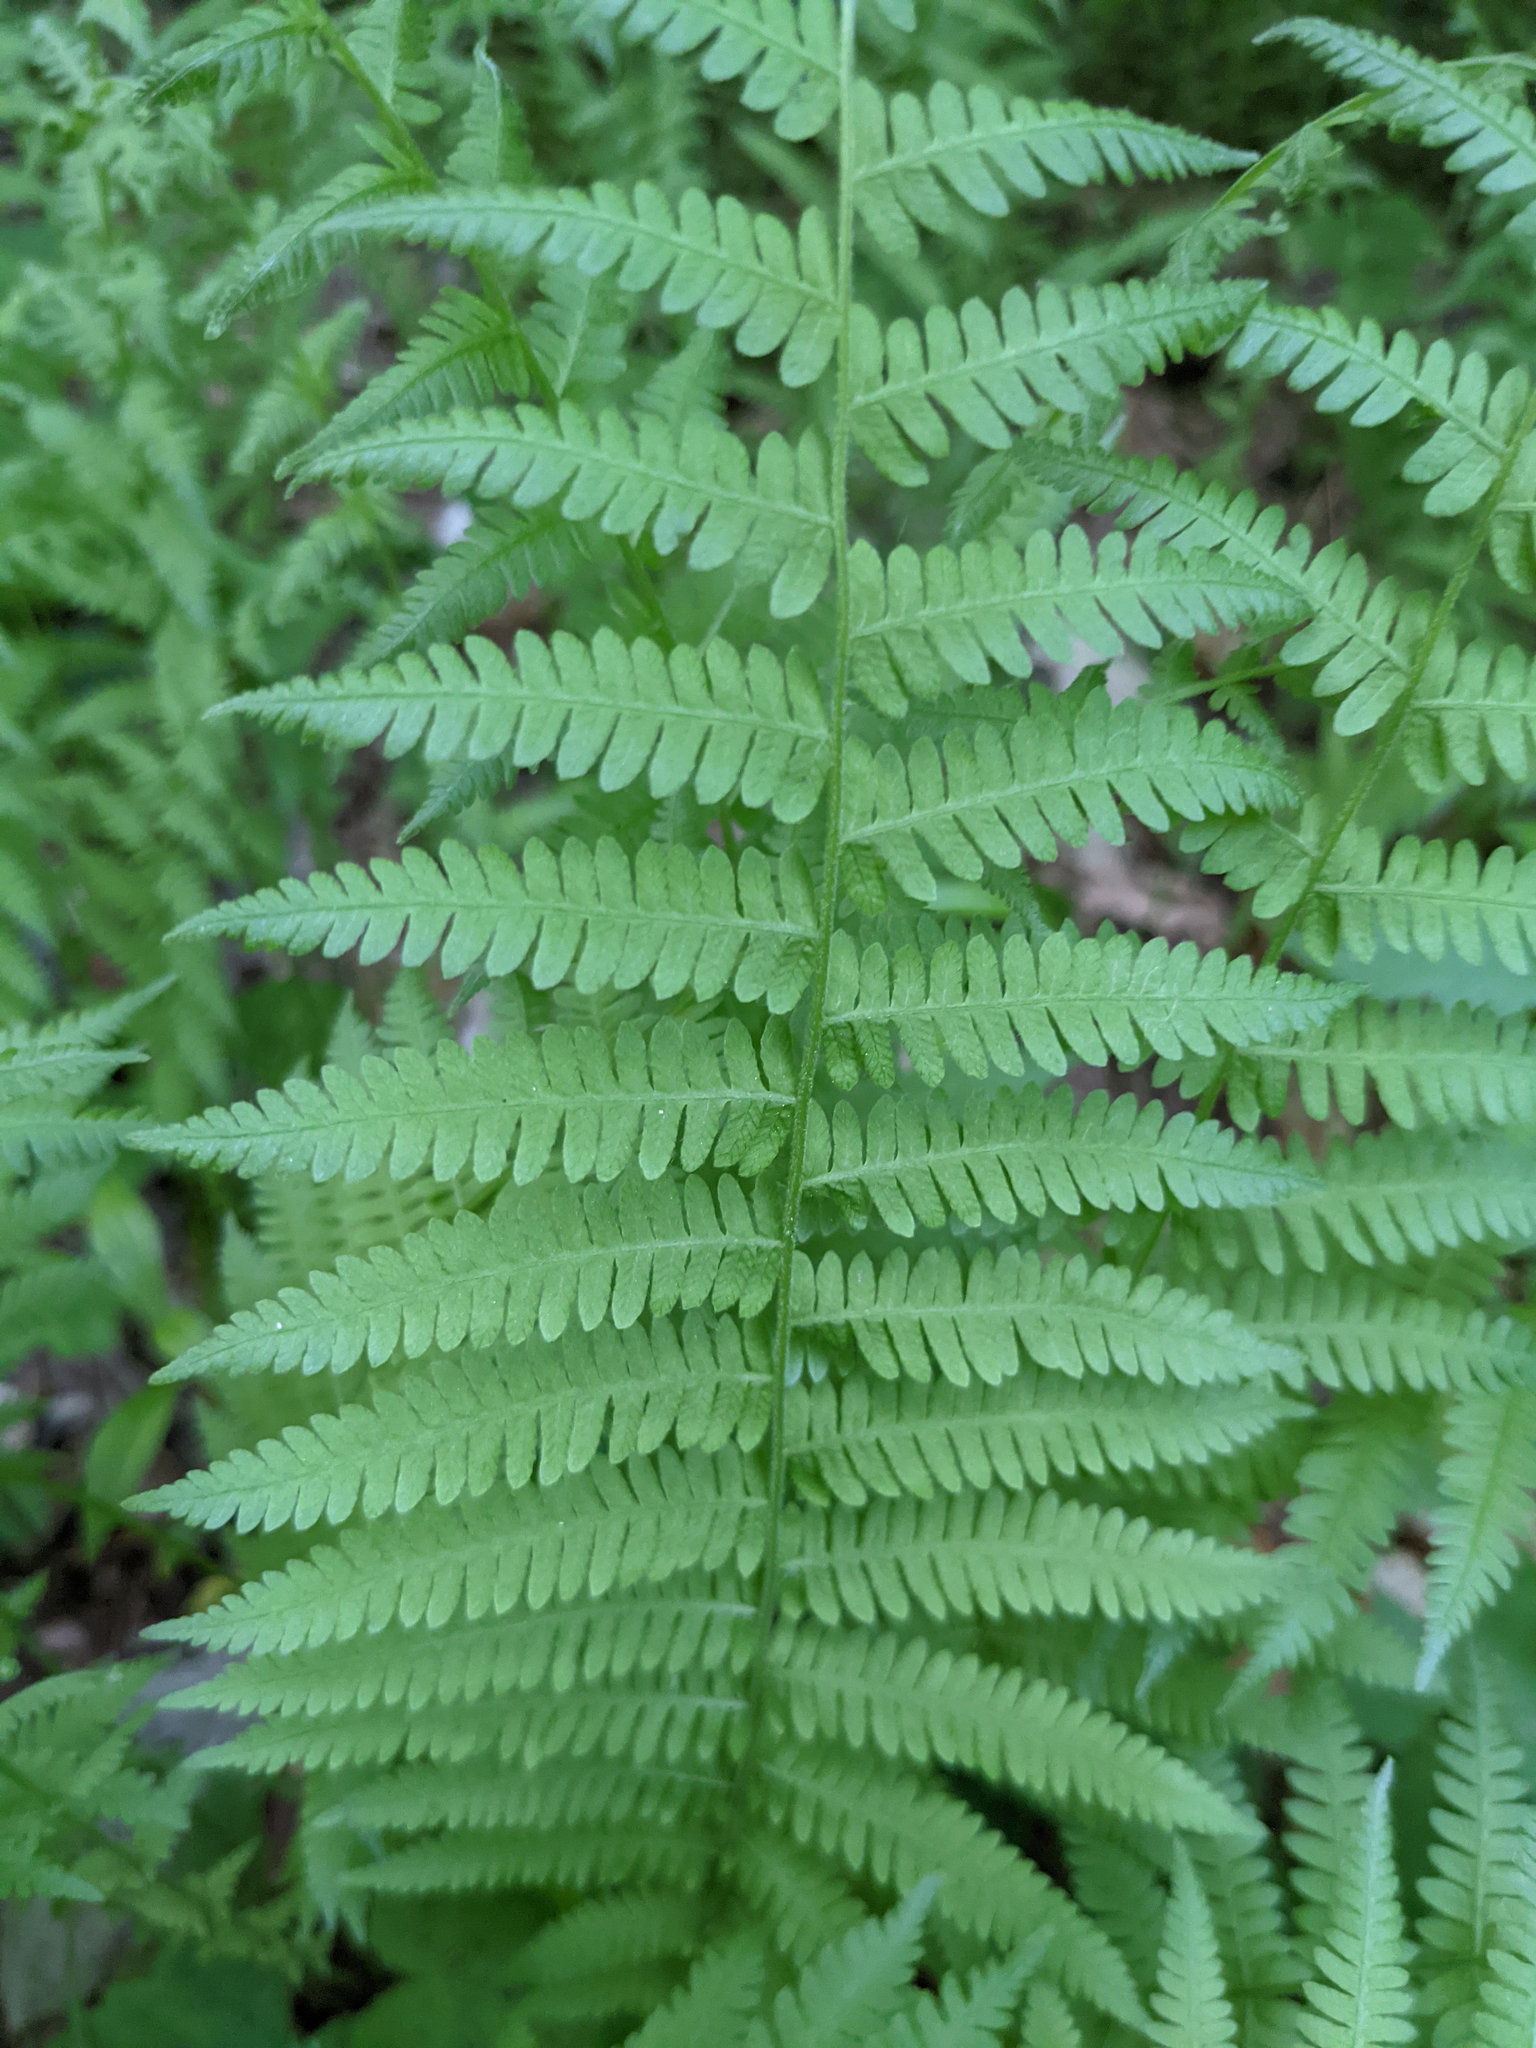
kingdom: Plantae
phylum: Tracheophyta
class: Polypodiopsida
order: Polypodiales
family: Thelypteridaceae
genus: Amauropelta
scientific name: Amauropelta noveboracensis
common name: New york fern
